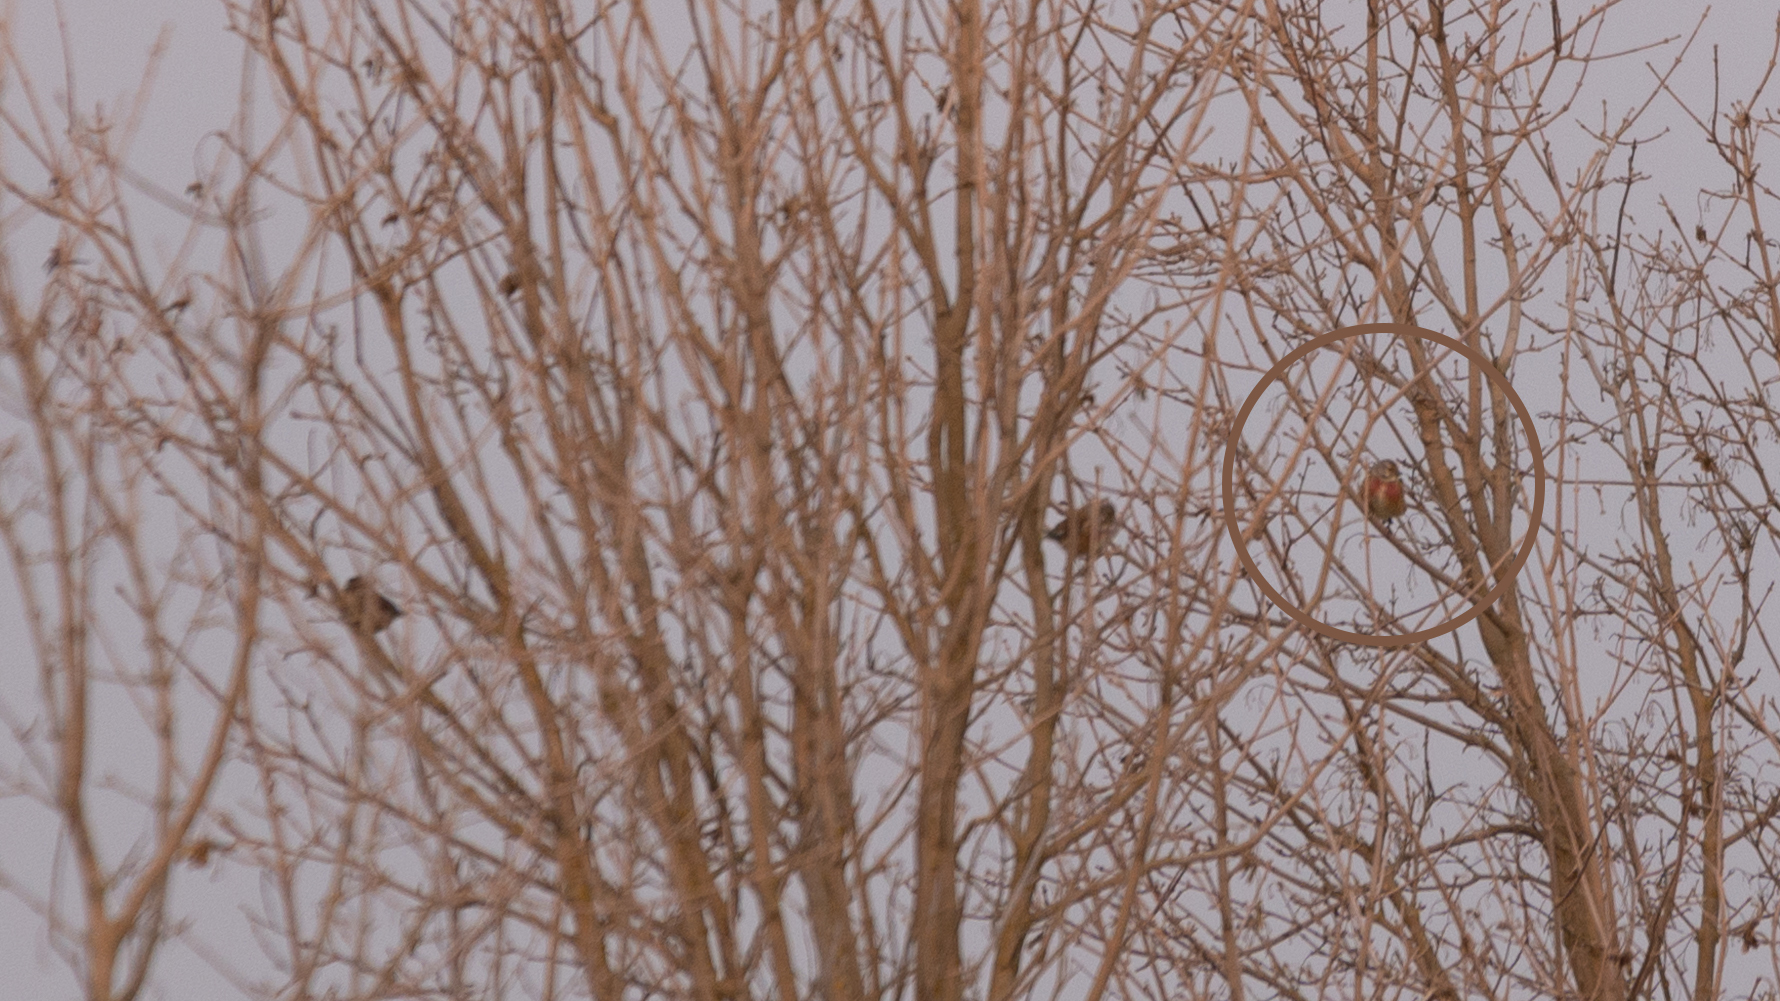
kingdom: Animalia
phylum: Chordata
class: Aves
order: Passeriformes
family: Fringillidae
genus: Linaria
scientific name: Linaria cannabina
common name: Common linnet
